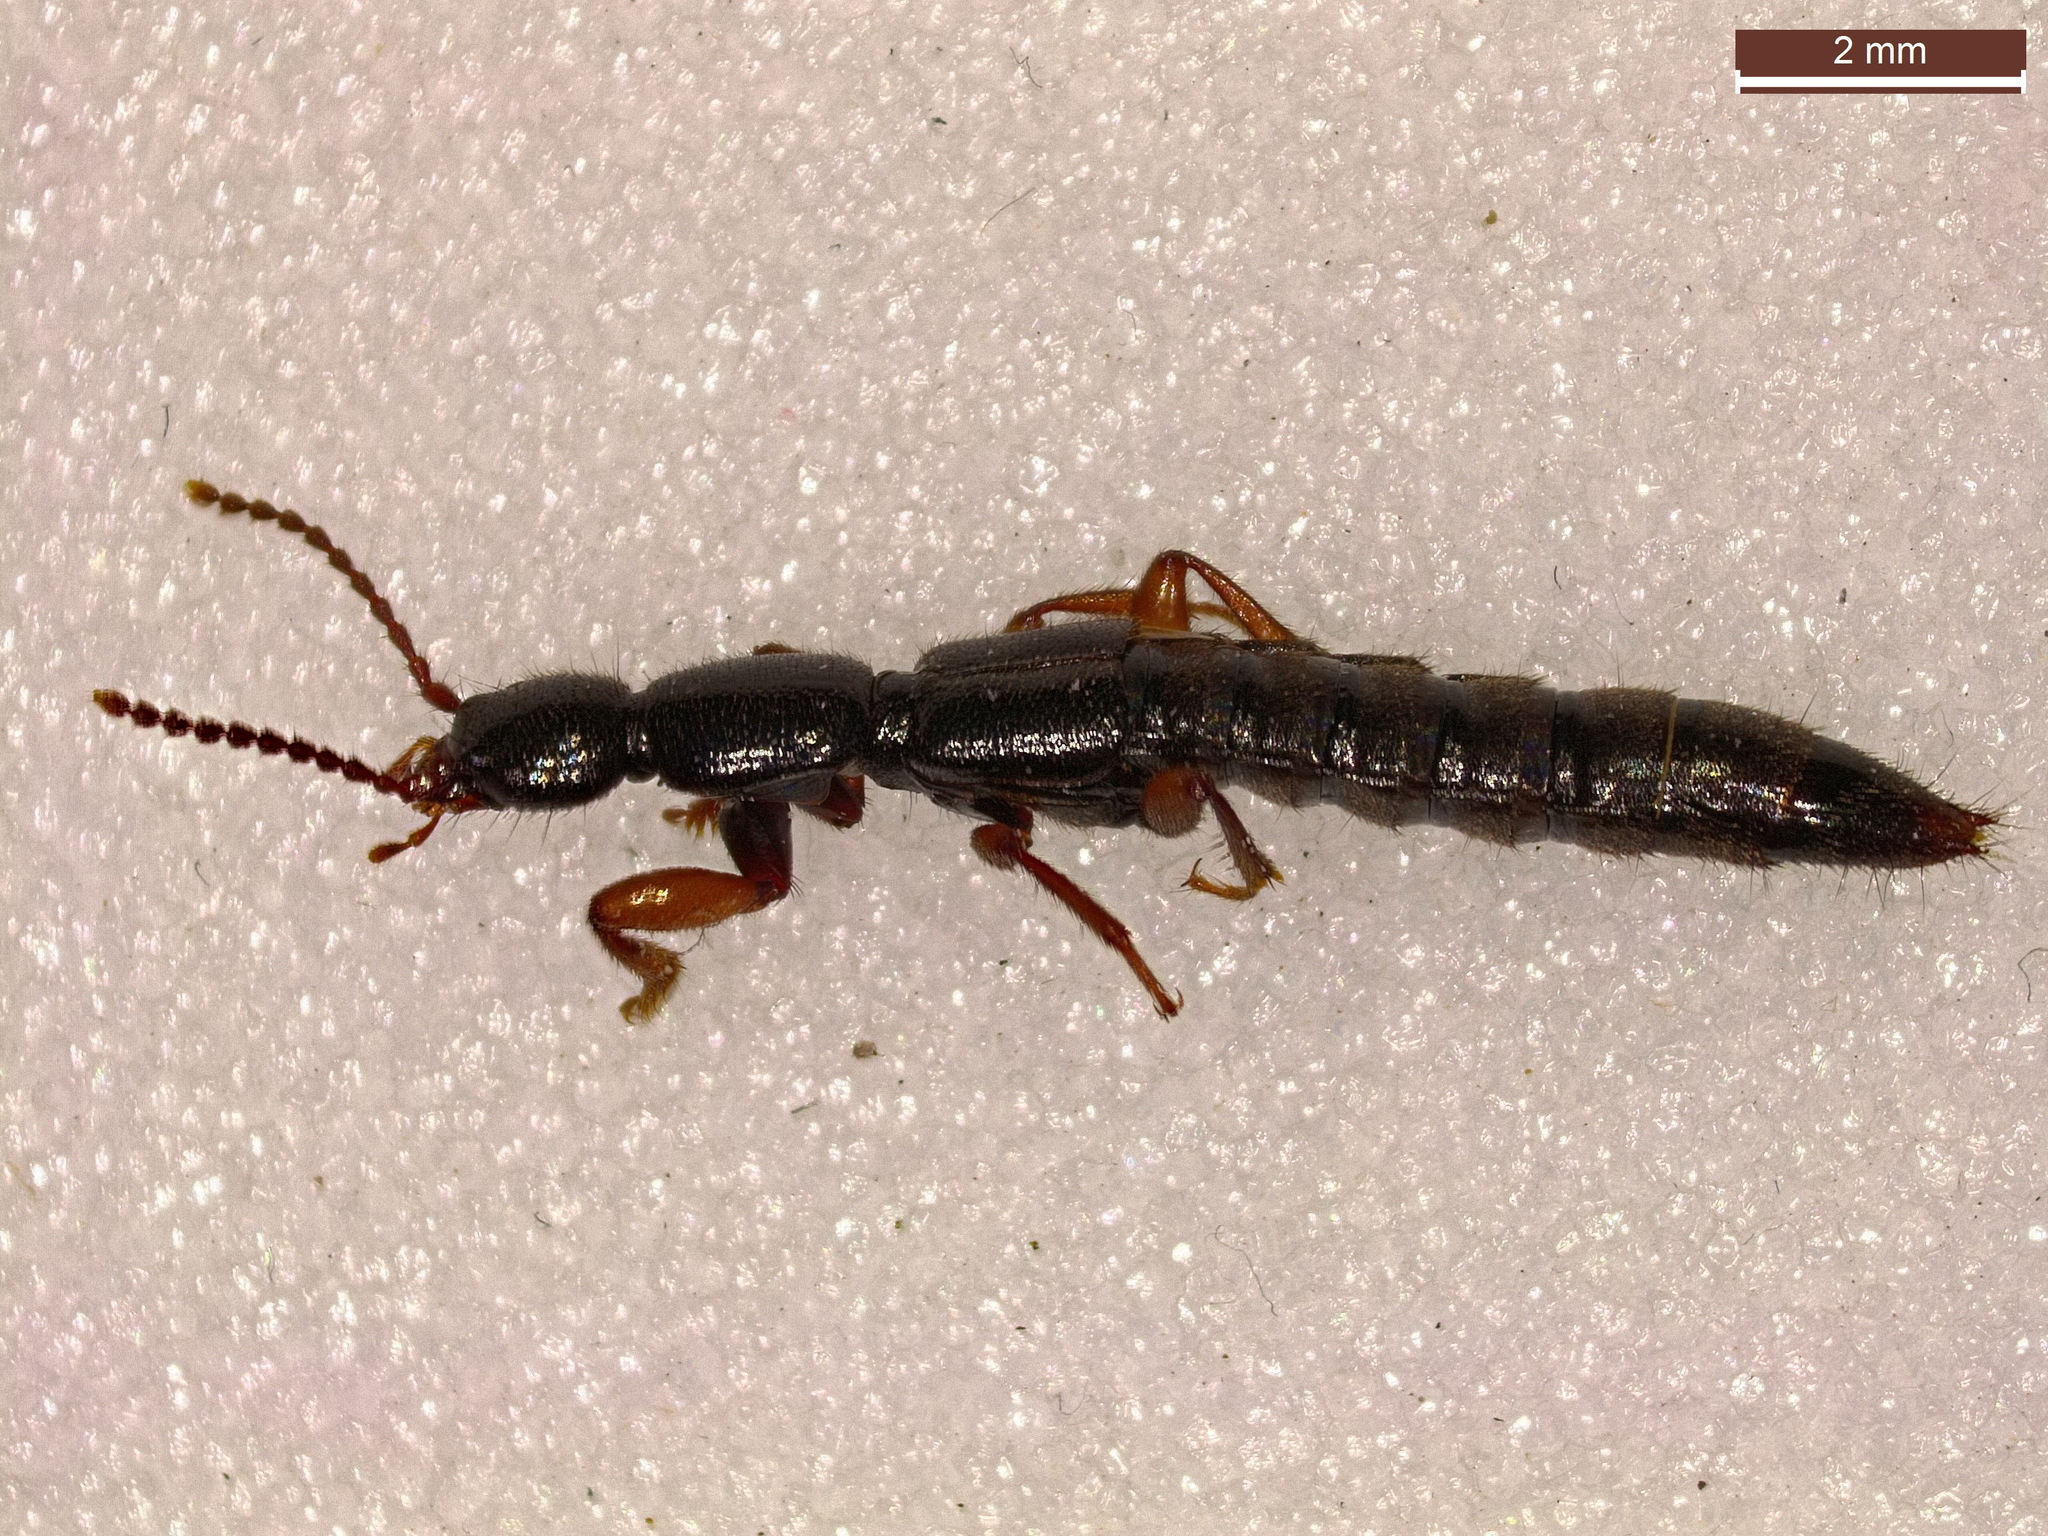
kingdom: Animalia
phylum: Arthropoda
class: Insecta
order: Coleoptera
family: Staphylinidae
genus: Lathrobium
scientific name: Lathrobium brunnipes
